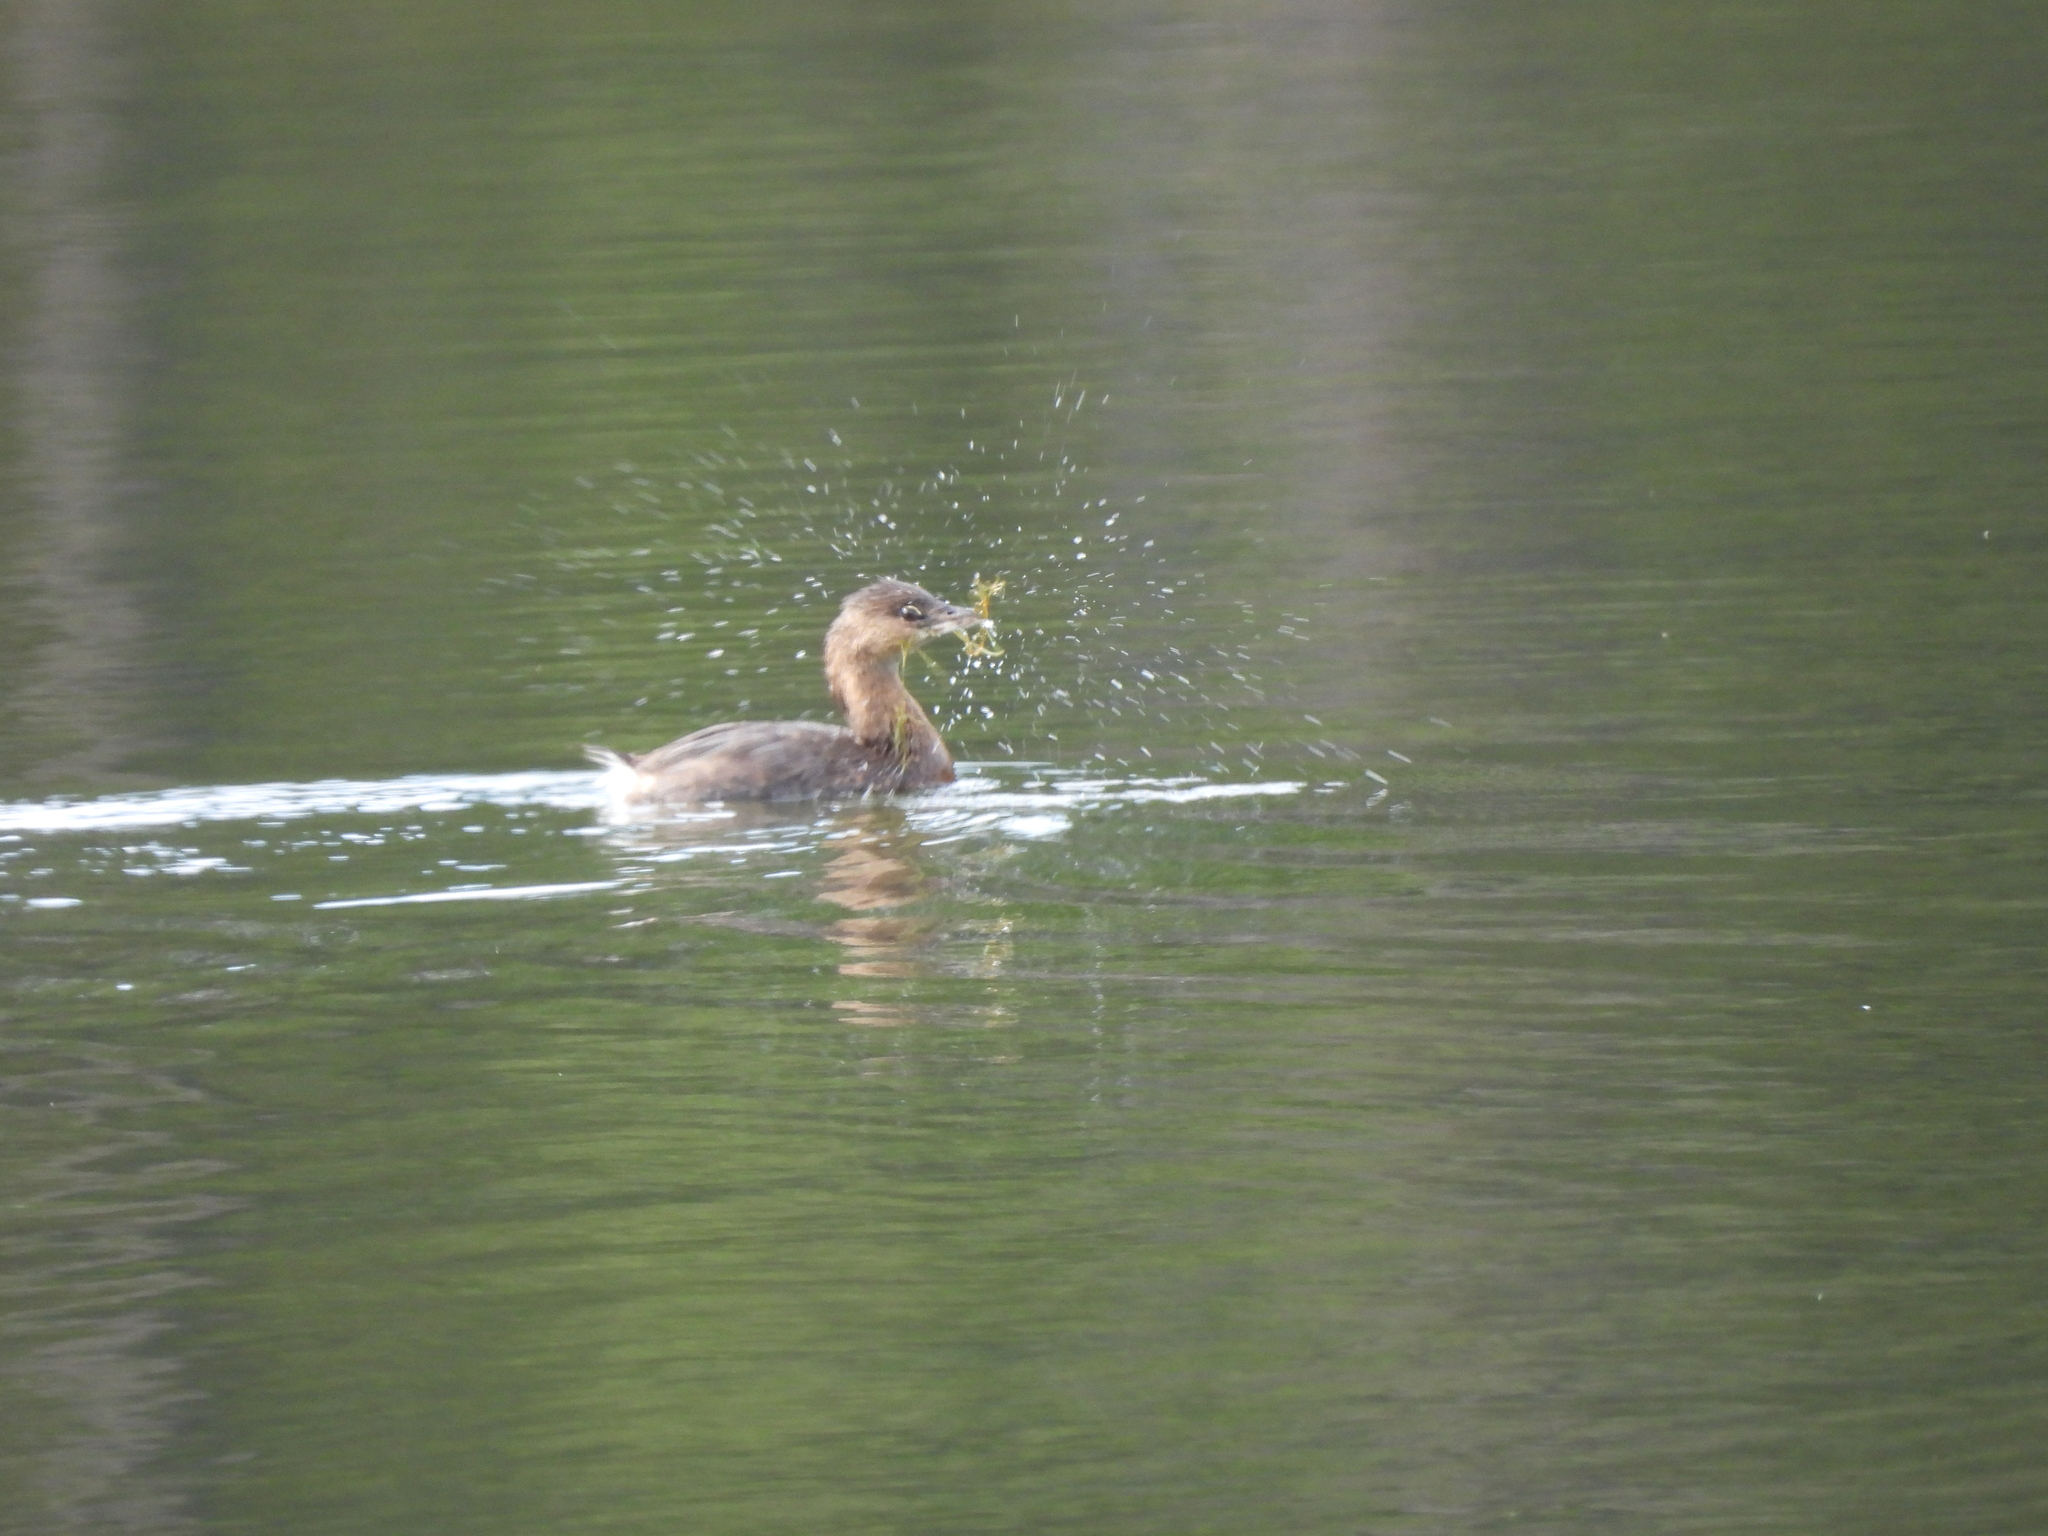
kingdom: Animalia
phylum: Chordata
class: Aves
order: Podicipediformes
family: Podicipedidae
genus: Podilymbus
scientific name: Podilymbus podiceps
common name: Pied-billed grebe
